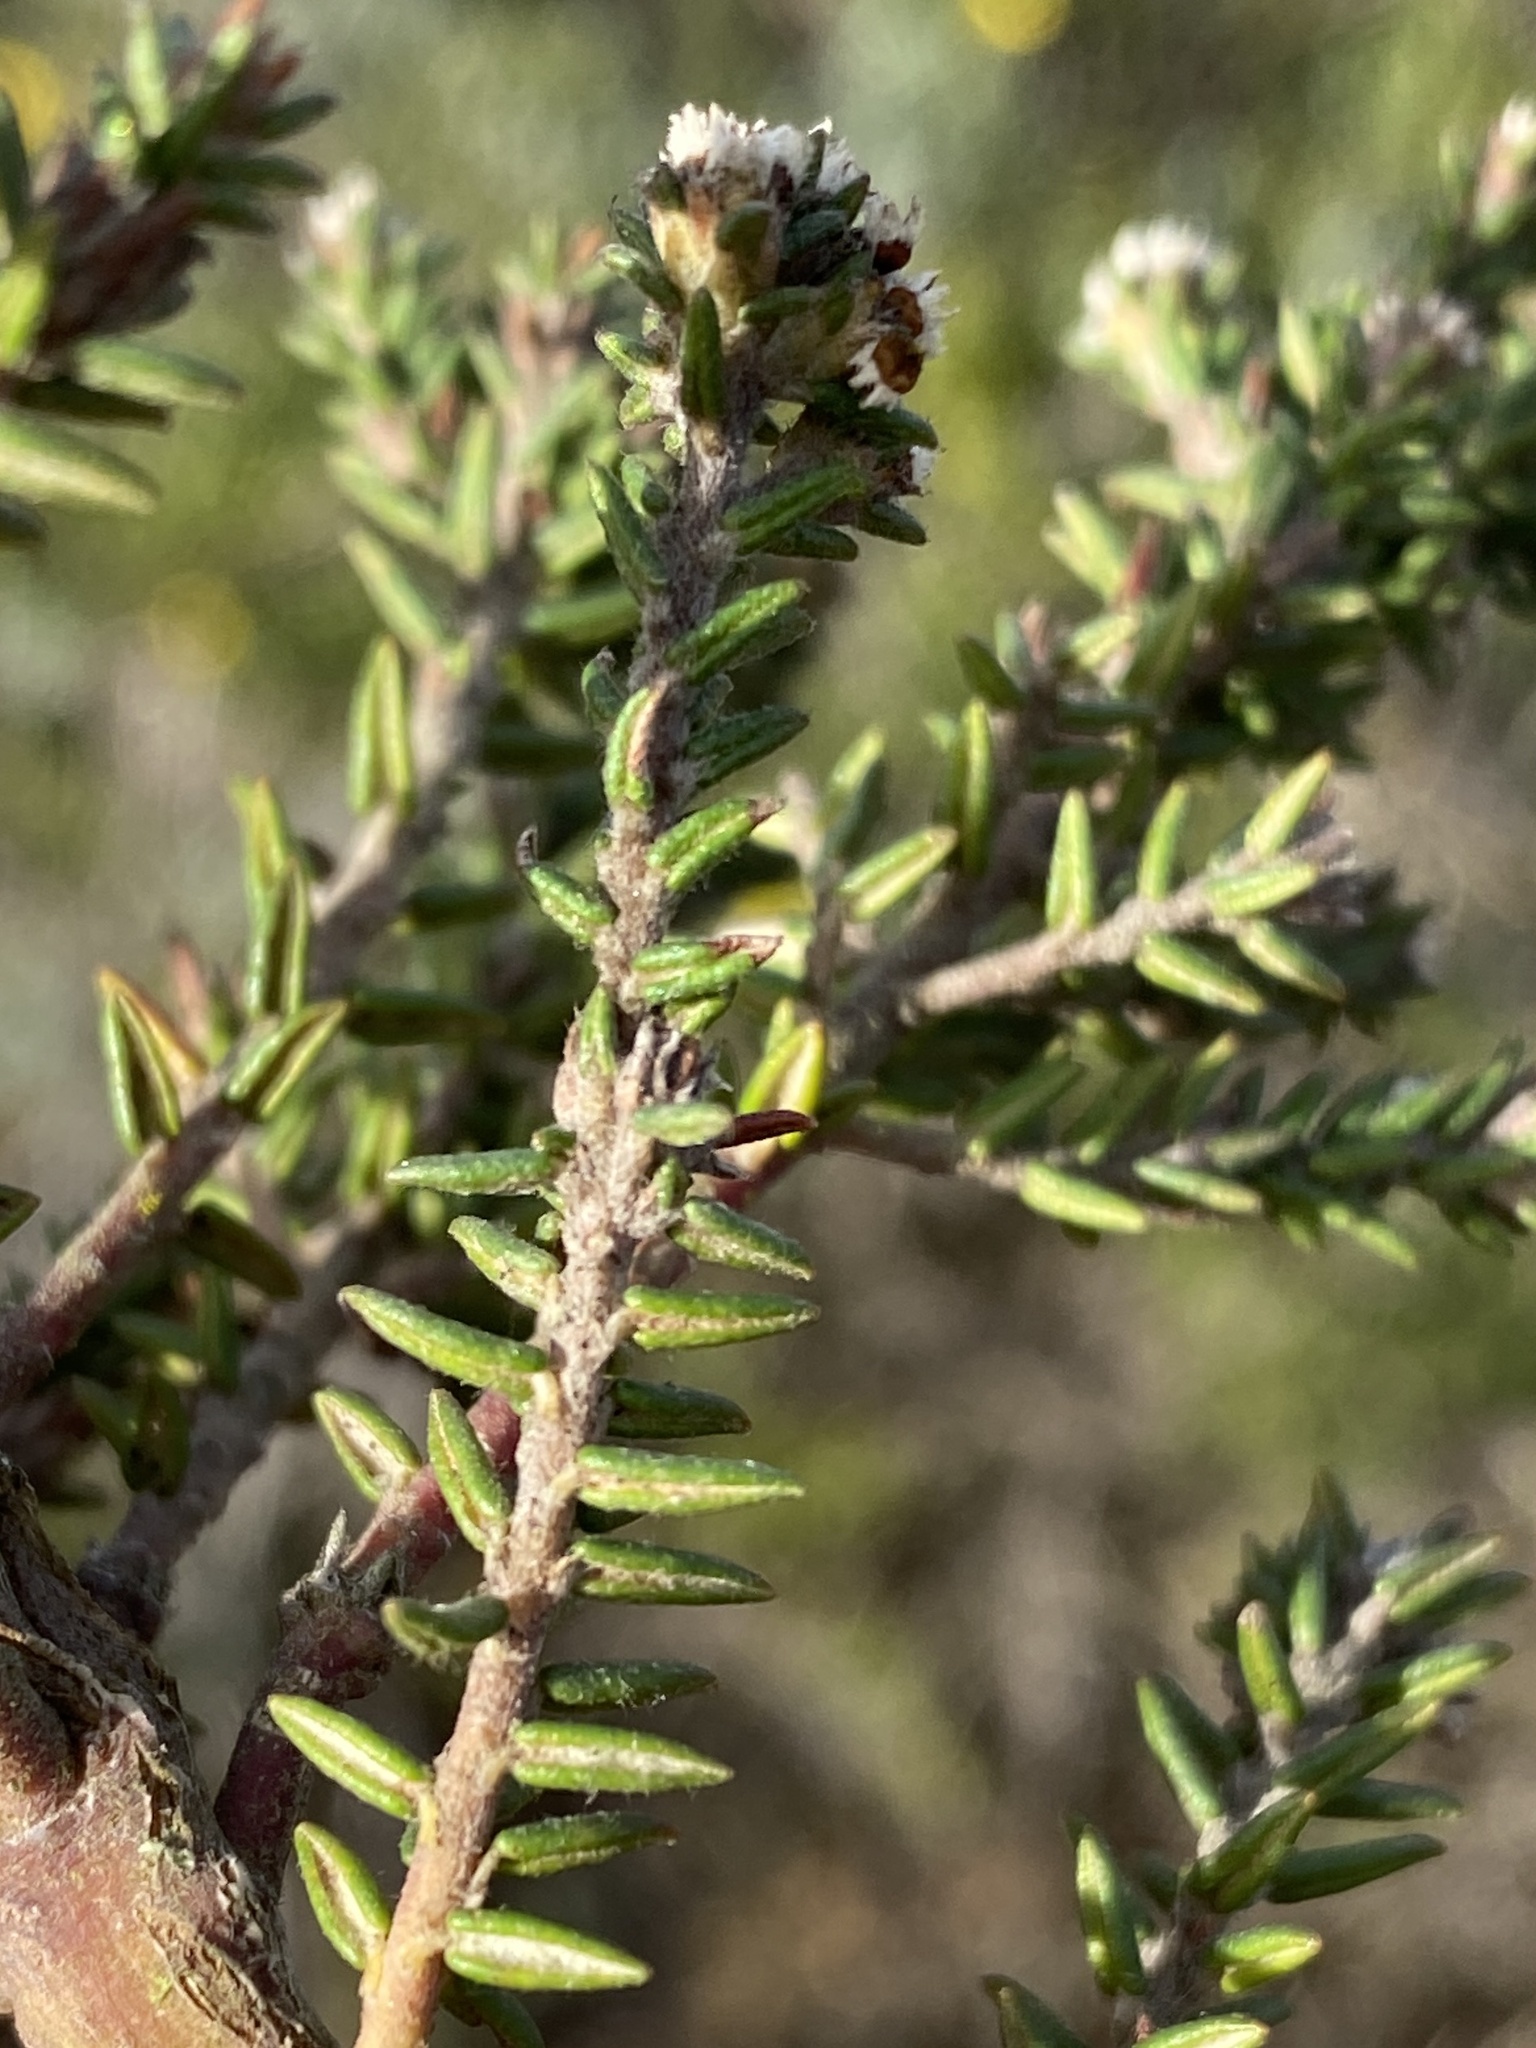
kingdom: Plantae
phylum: Tracheophyta
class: Magnoliopsida
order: Rosales
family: Rhamnaceae
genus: Phylica
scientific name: Phylica stenopetala
